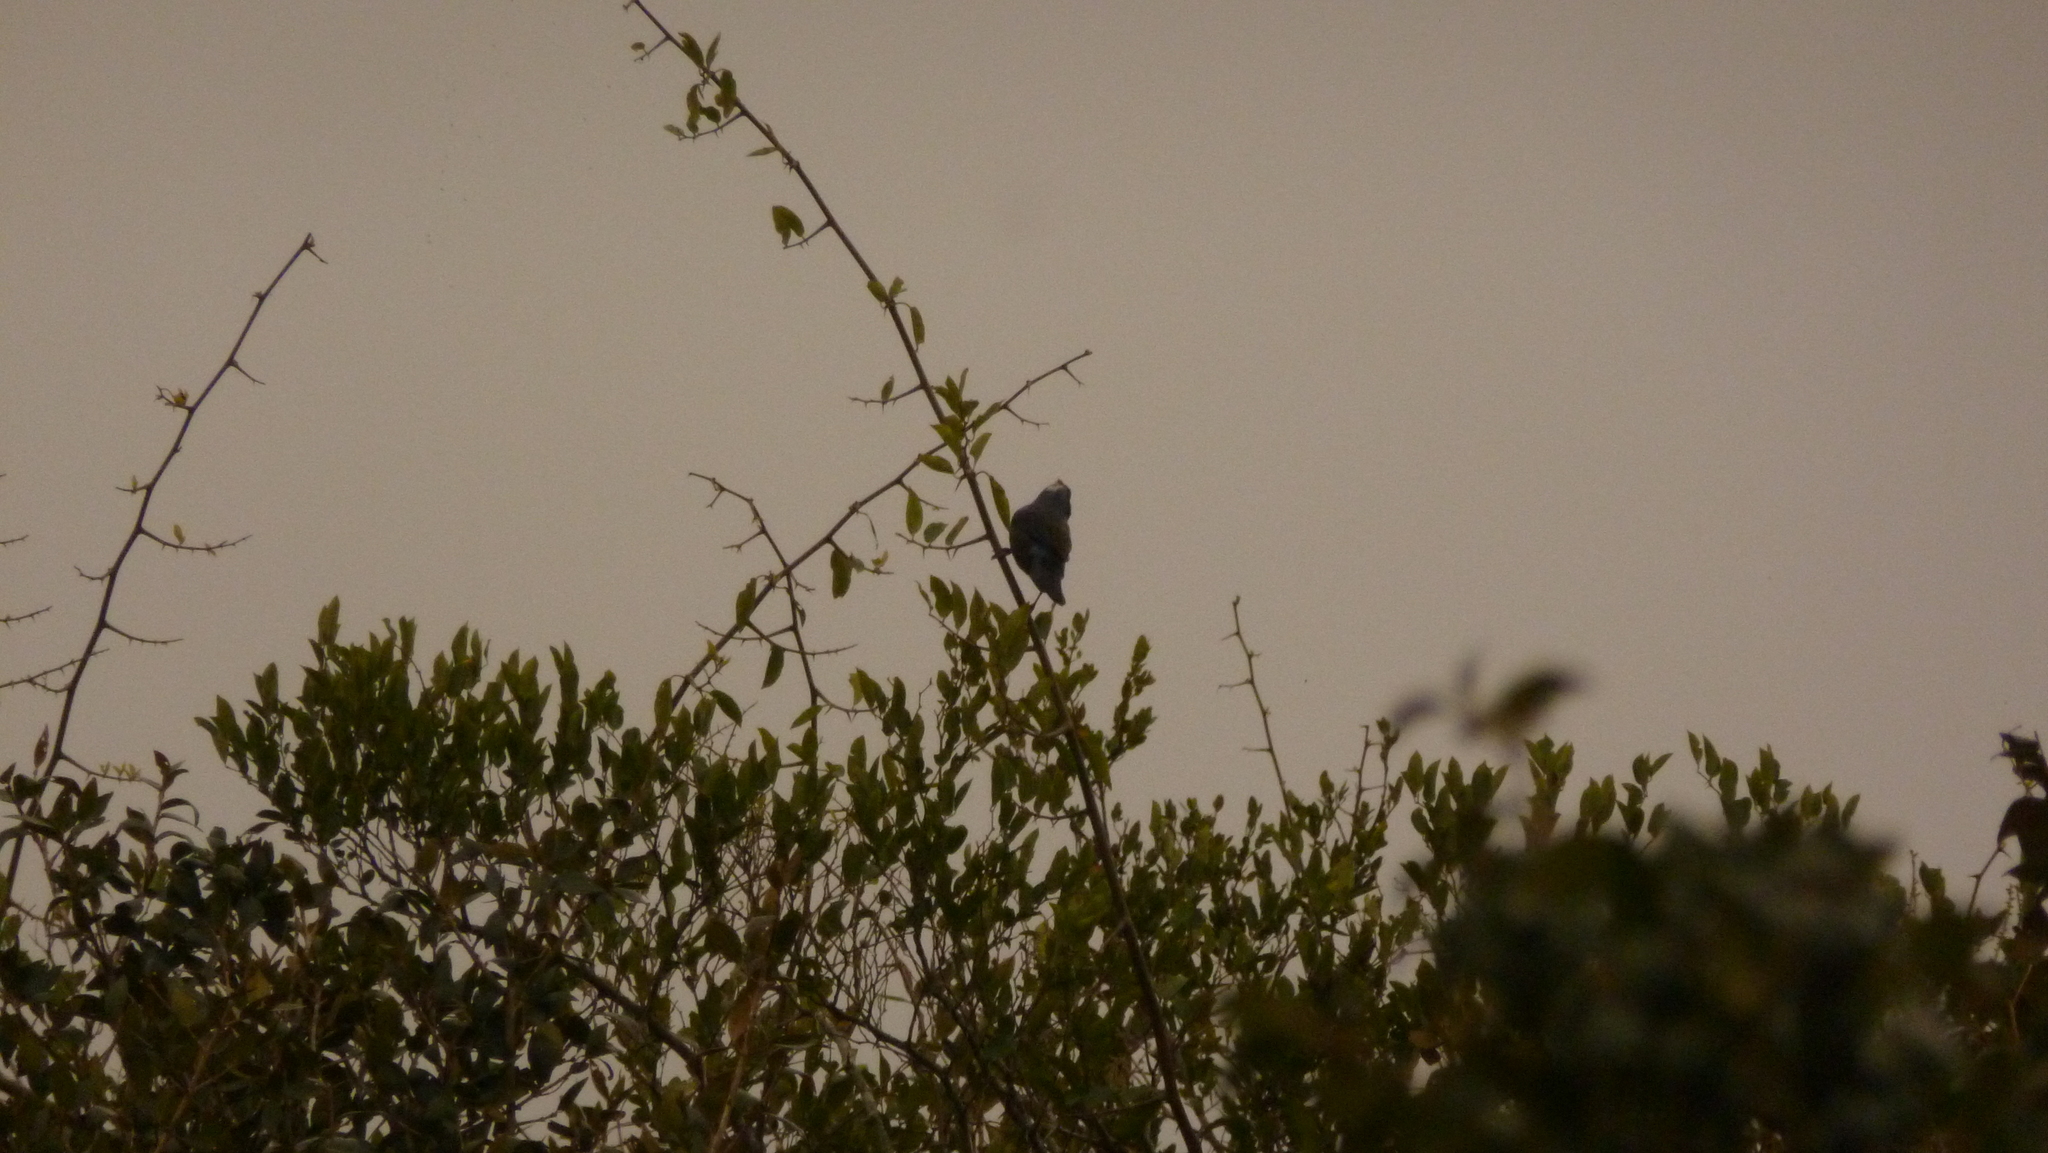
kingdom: Animalia
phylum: Chordata
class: Aves
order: Passeriformes
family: Thraupidae
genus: Stephanophorus
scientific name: Stephanophorus diadematus
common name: Diademed tanager
